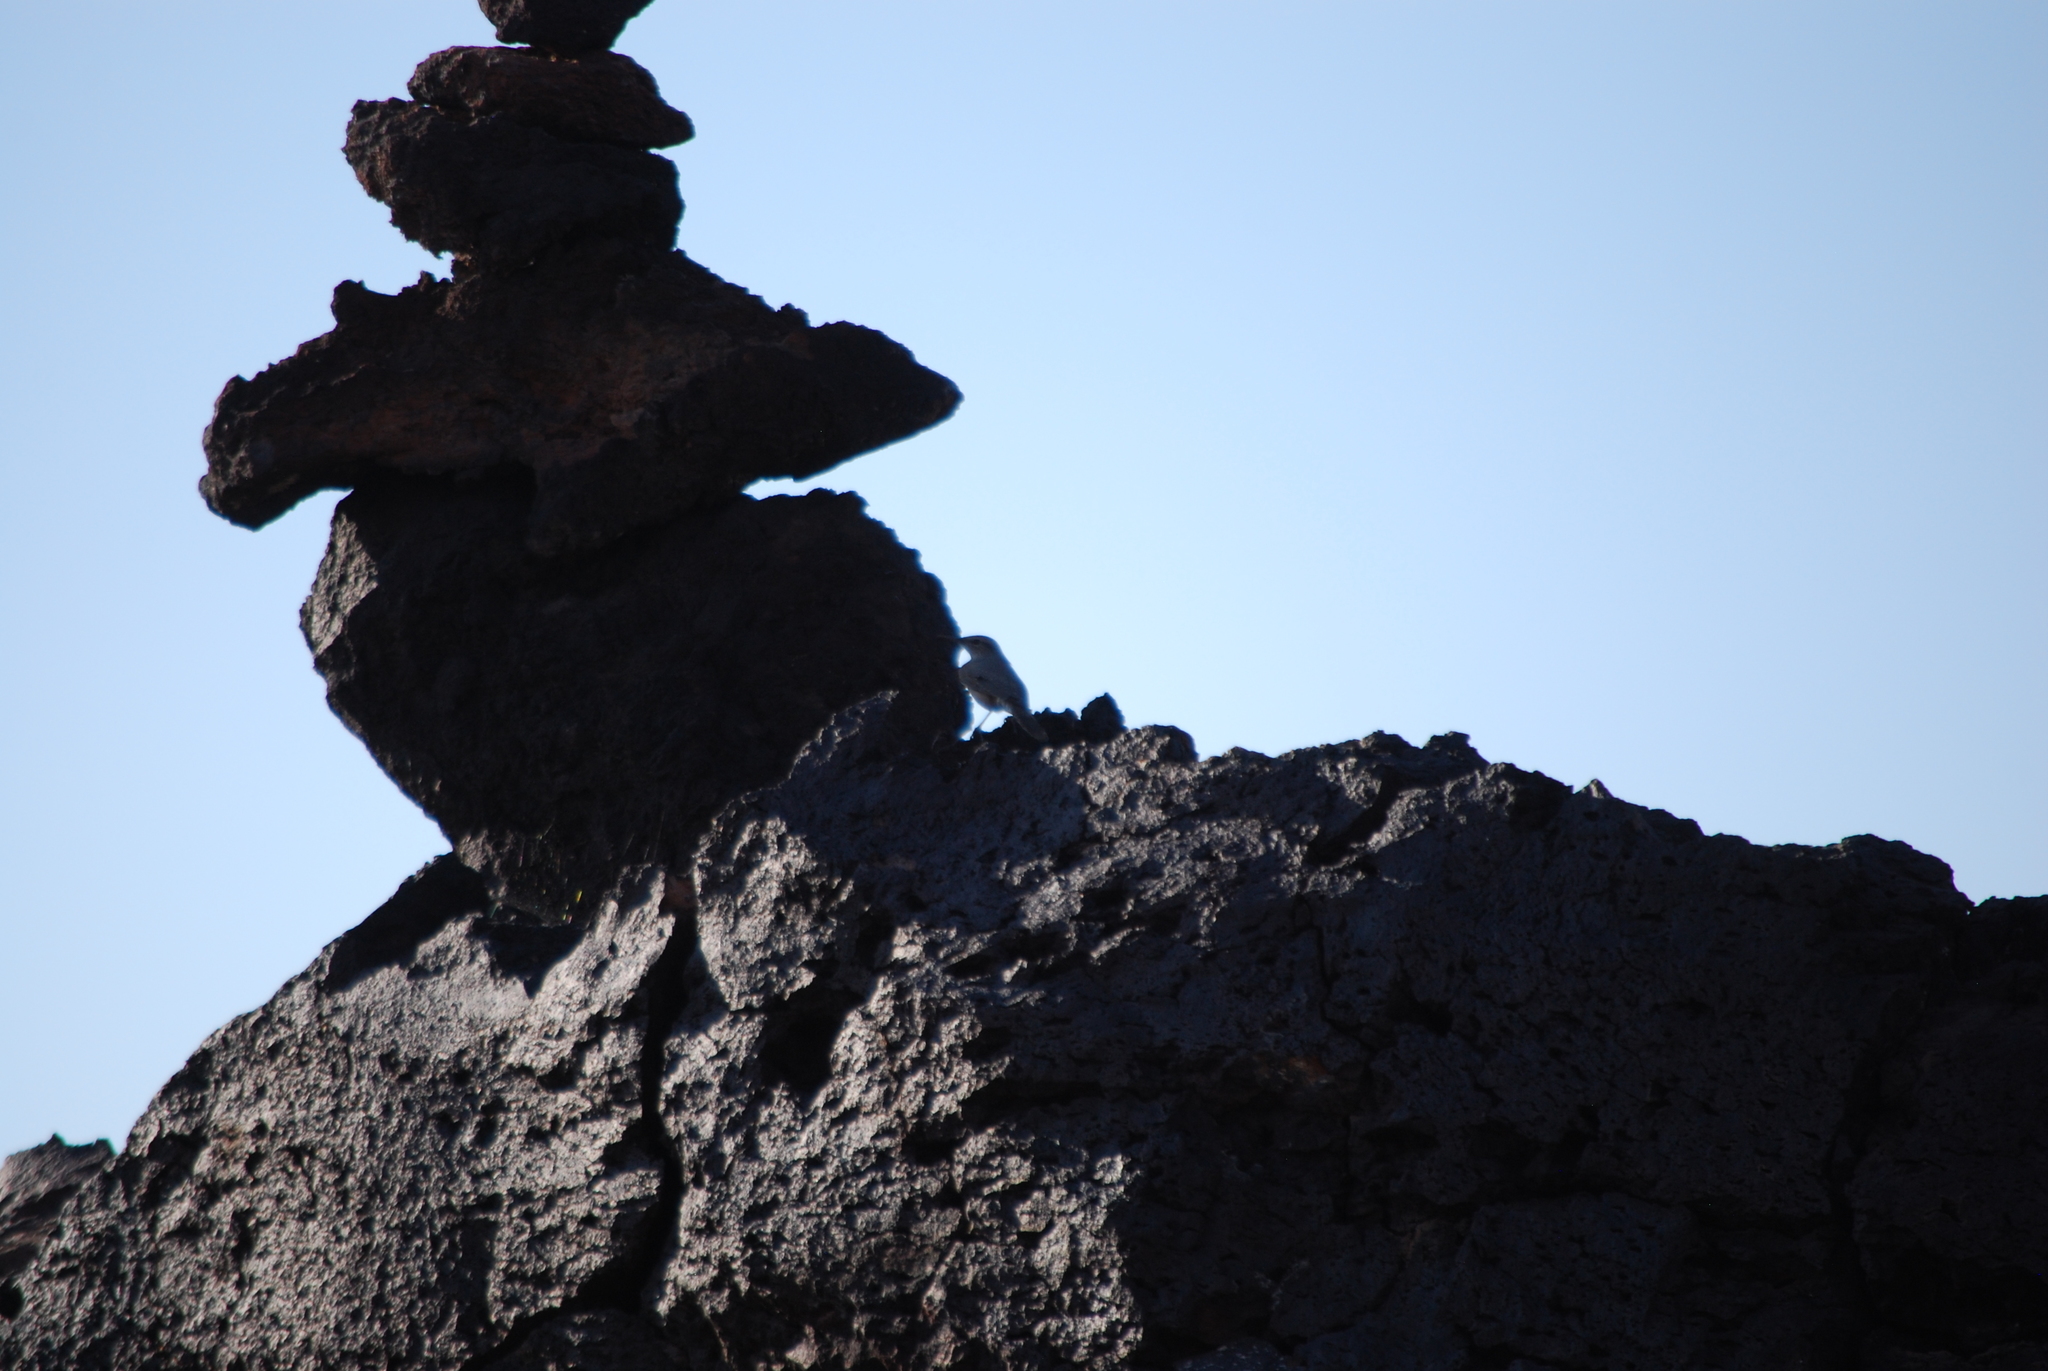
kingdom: Animalia
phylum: Chordata
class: Aves
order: Passeriformes
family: Troglodytidae
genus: Salpinctes
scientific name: Salpinctes obsoletus
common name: Rock wren
